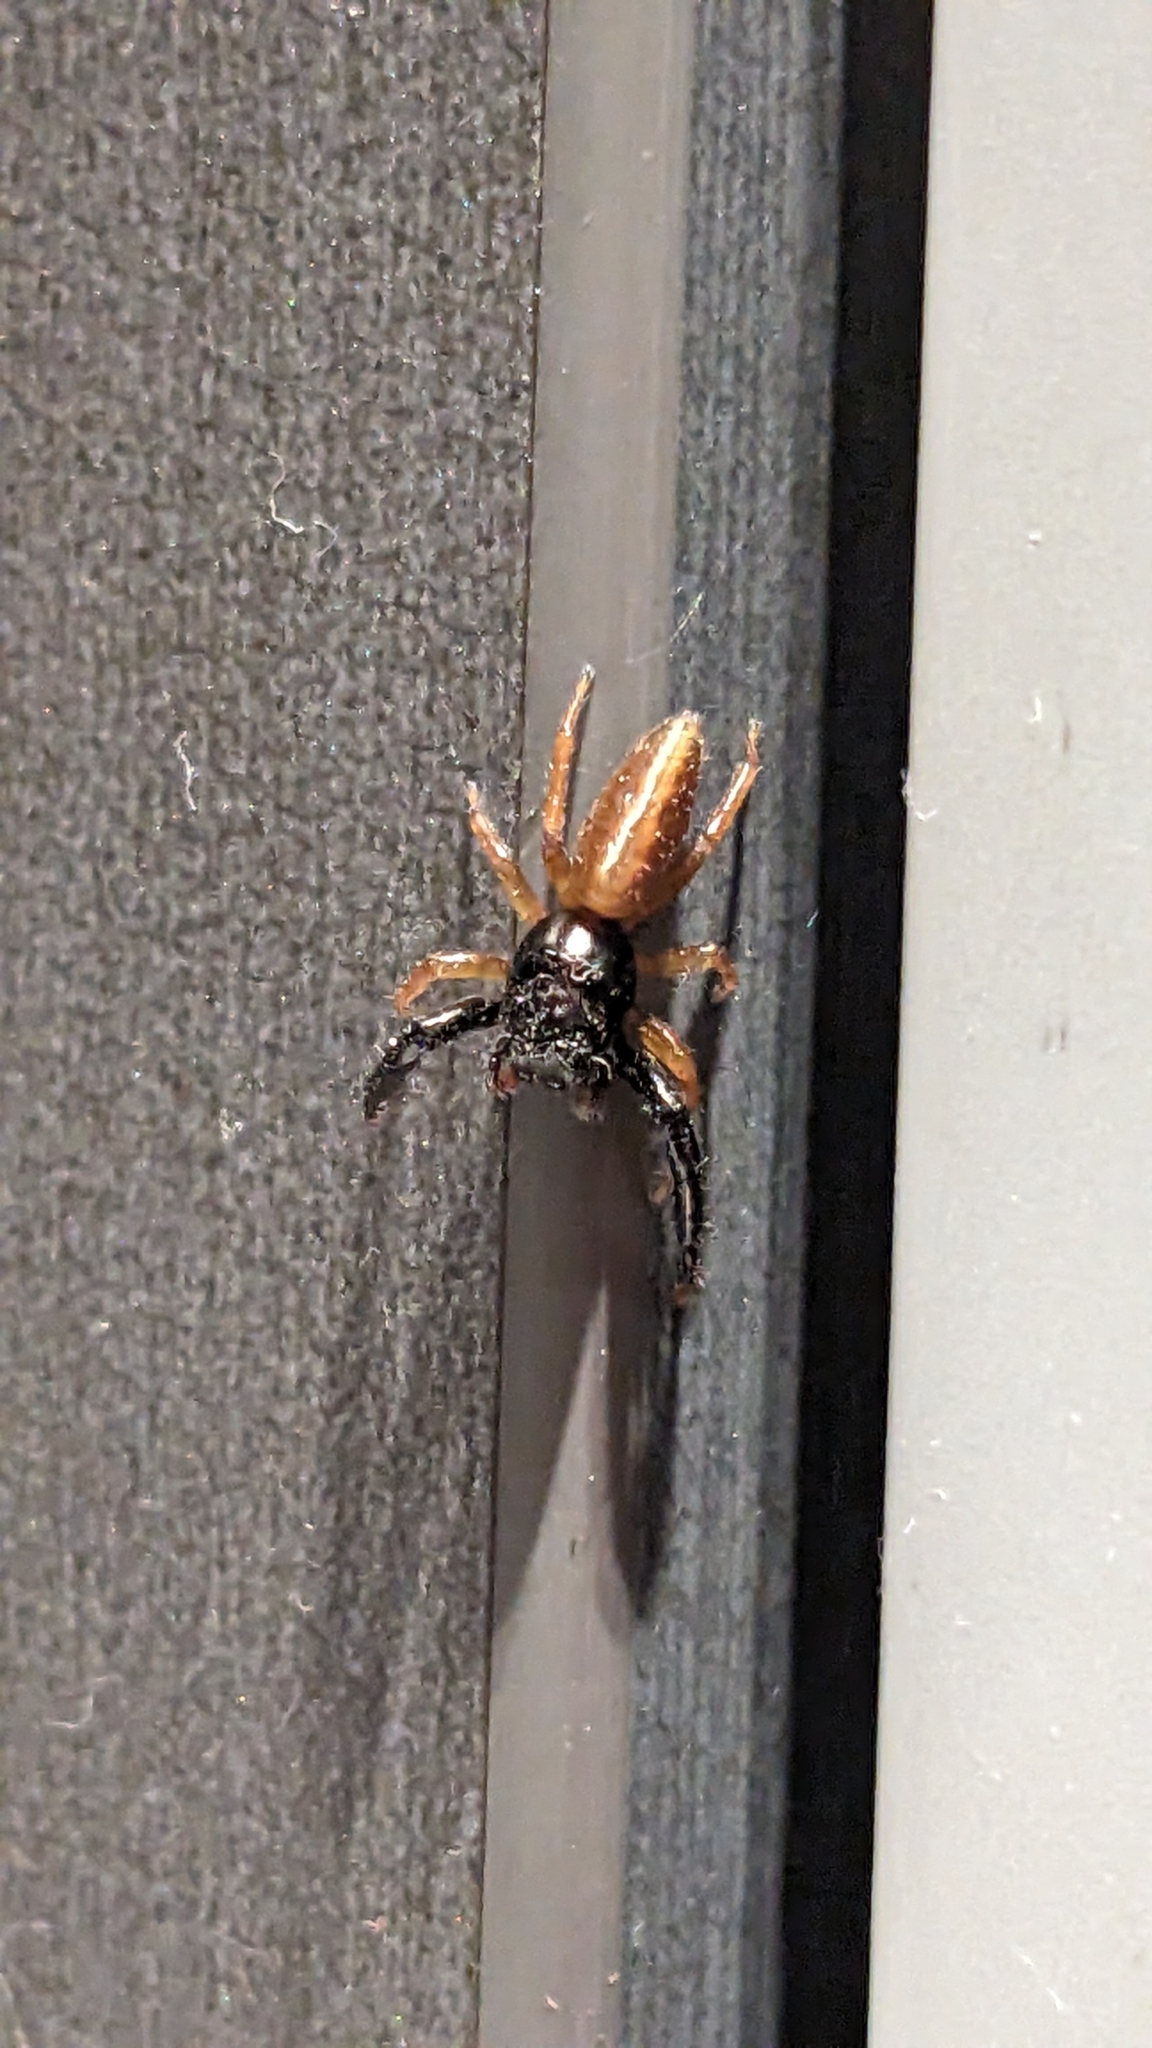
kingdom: Animalia
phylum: Arthropoda
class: Arachnida
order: Araneae
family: Salticidae
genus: Trite
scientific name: Trite planiceps
